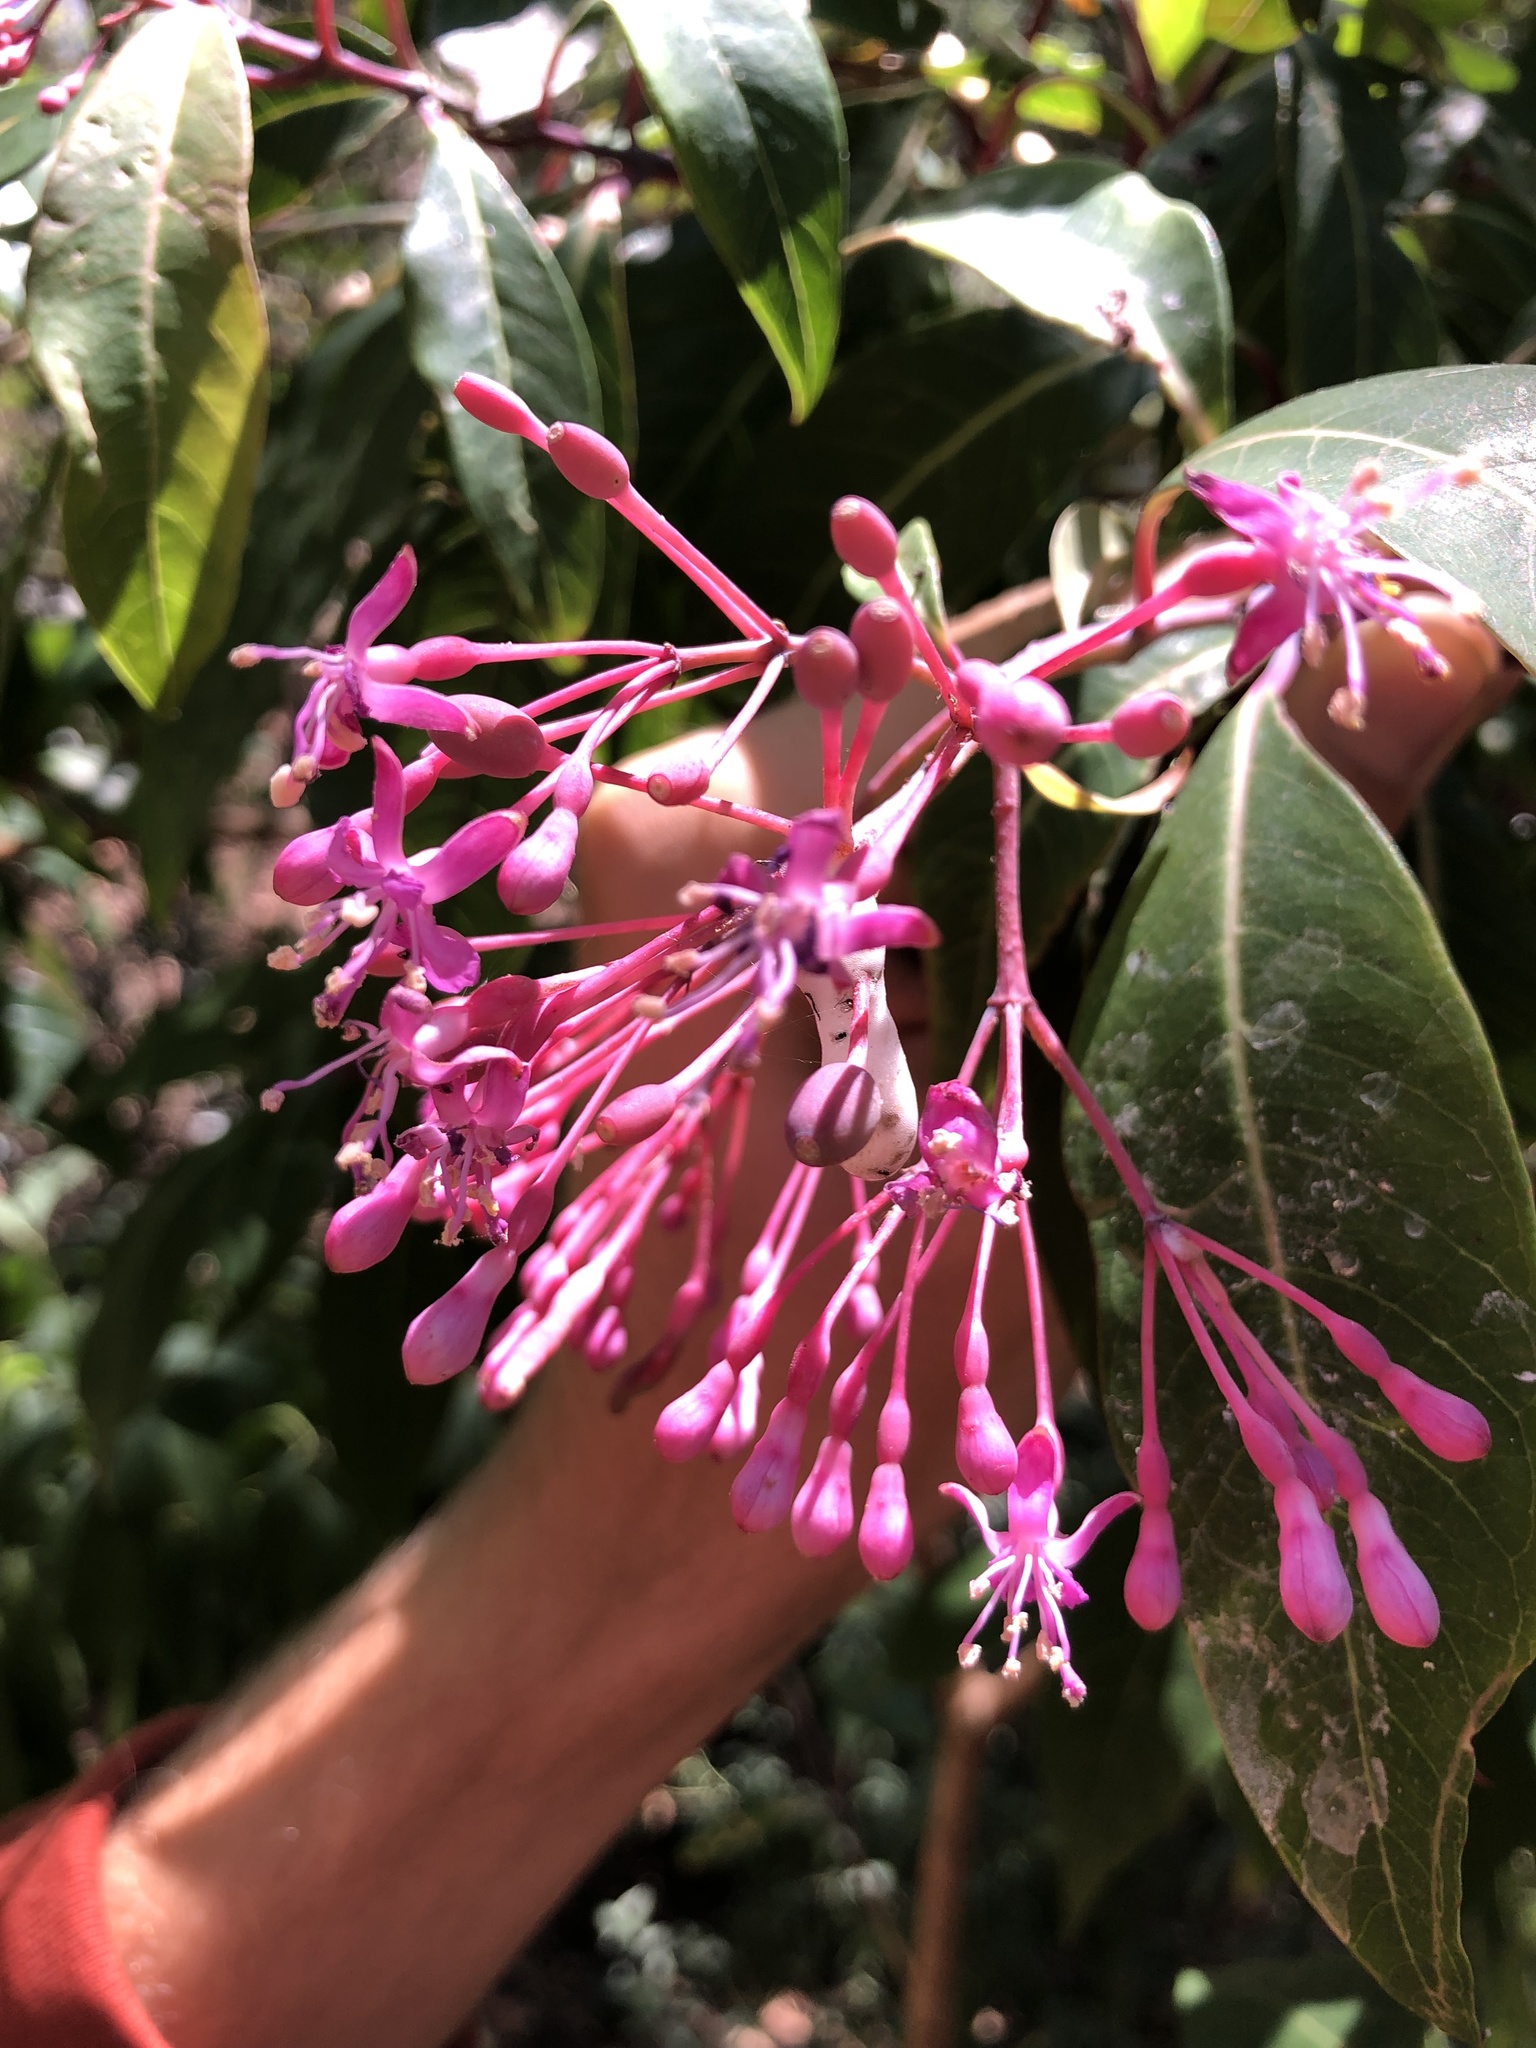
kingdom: Plantae
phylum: Tracheophyta
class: Magnoliopsida
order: Myrtales
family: Onagraceae
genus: Fuchsia
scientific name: Fuchsia paniculata
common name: Shrubby fuchsia
